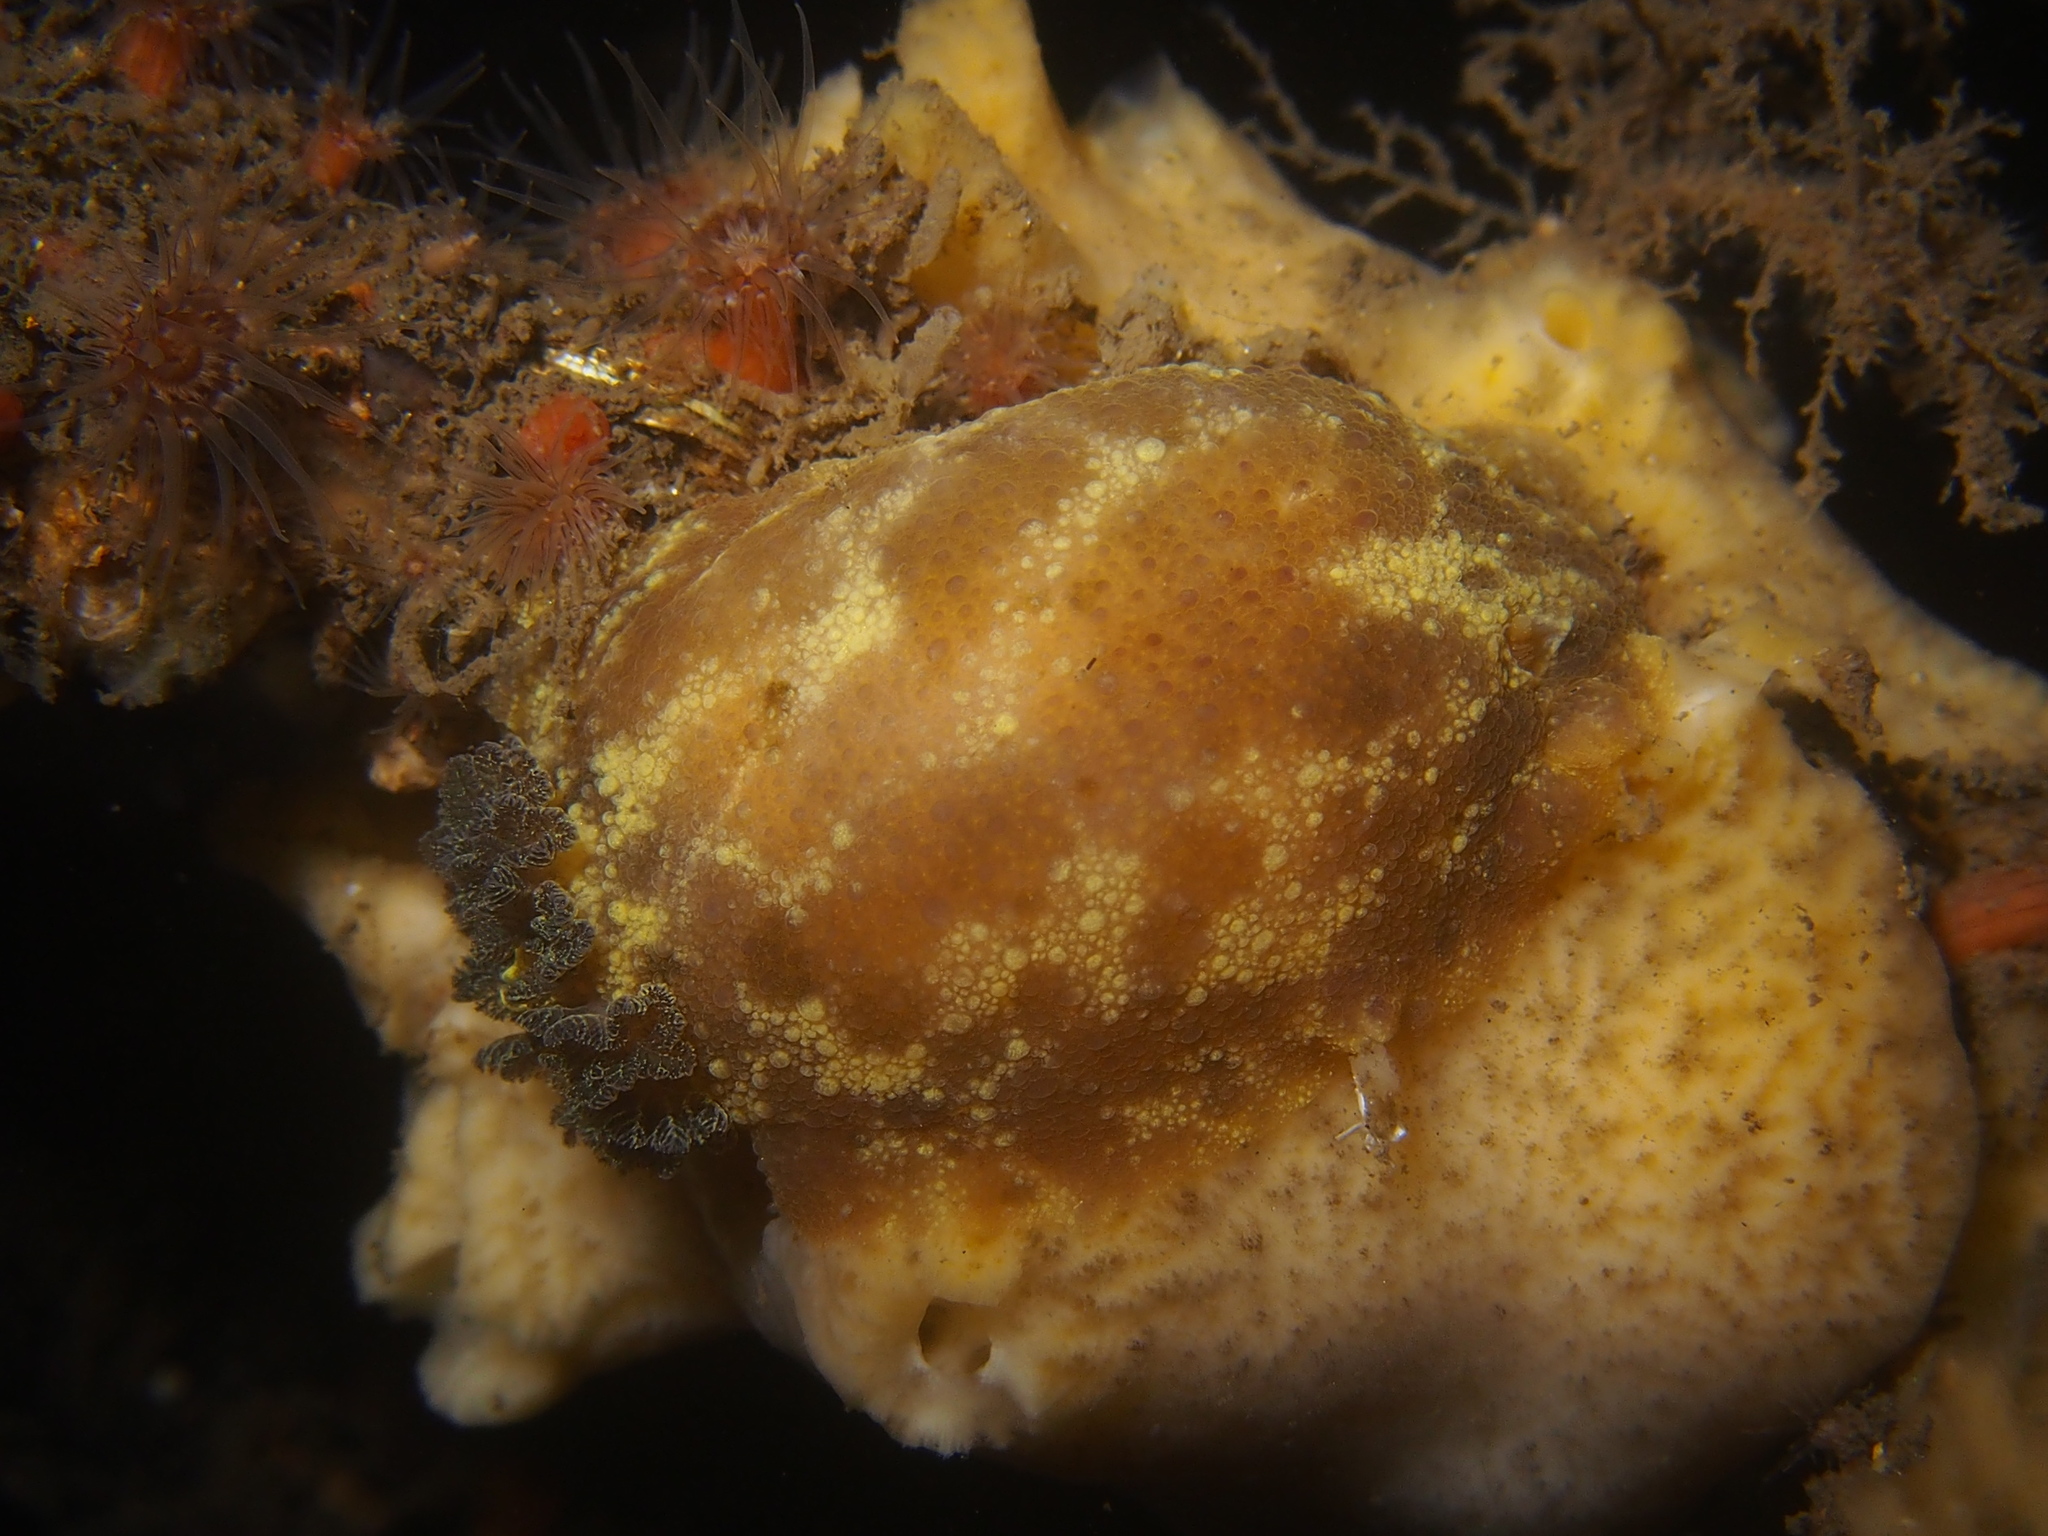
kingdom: Animalia
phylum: Mollusca
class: Gastropoda
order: Nudibranchia
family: Dorididae
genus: Doris
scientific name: Doris pseudoargus
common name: Sea lemon
